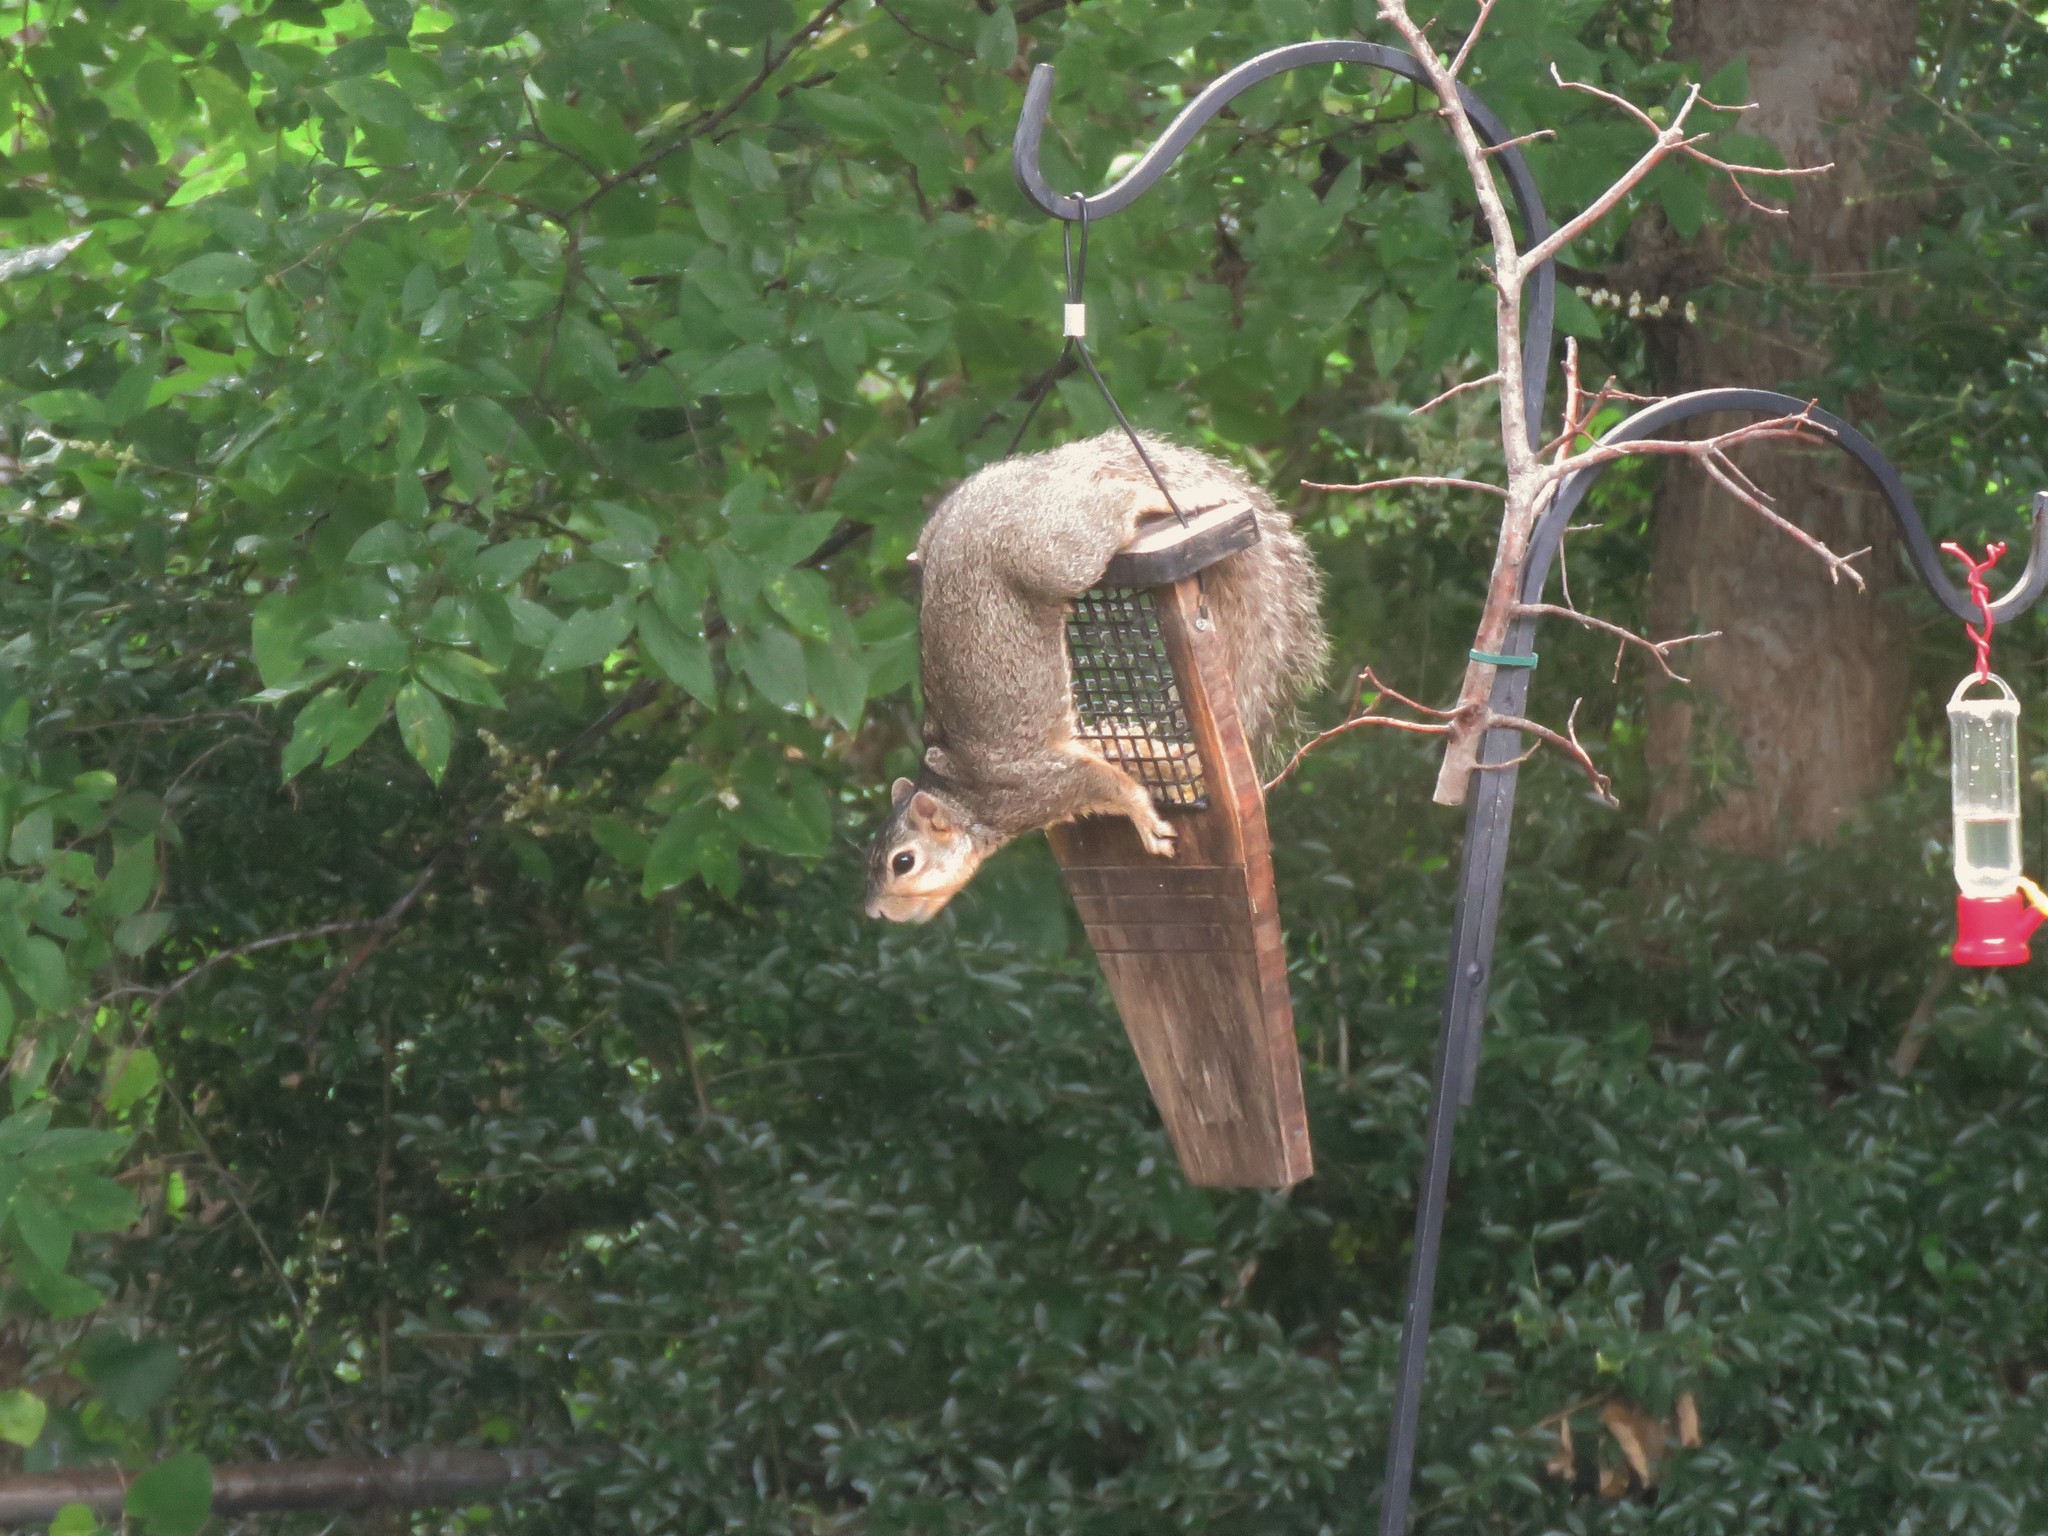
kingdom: Animalia
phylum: Chordata
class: Mammalia
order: Rodentia
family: Sciuridae
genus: Sciurus
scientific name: Sciurus niger
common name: Fox squirrel
